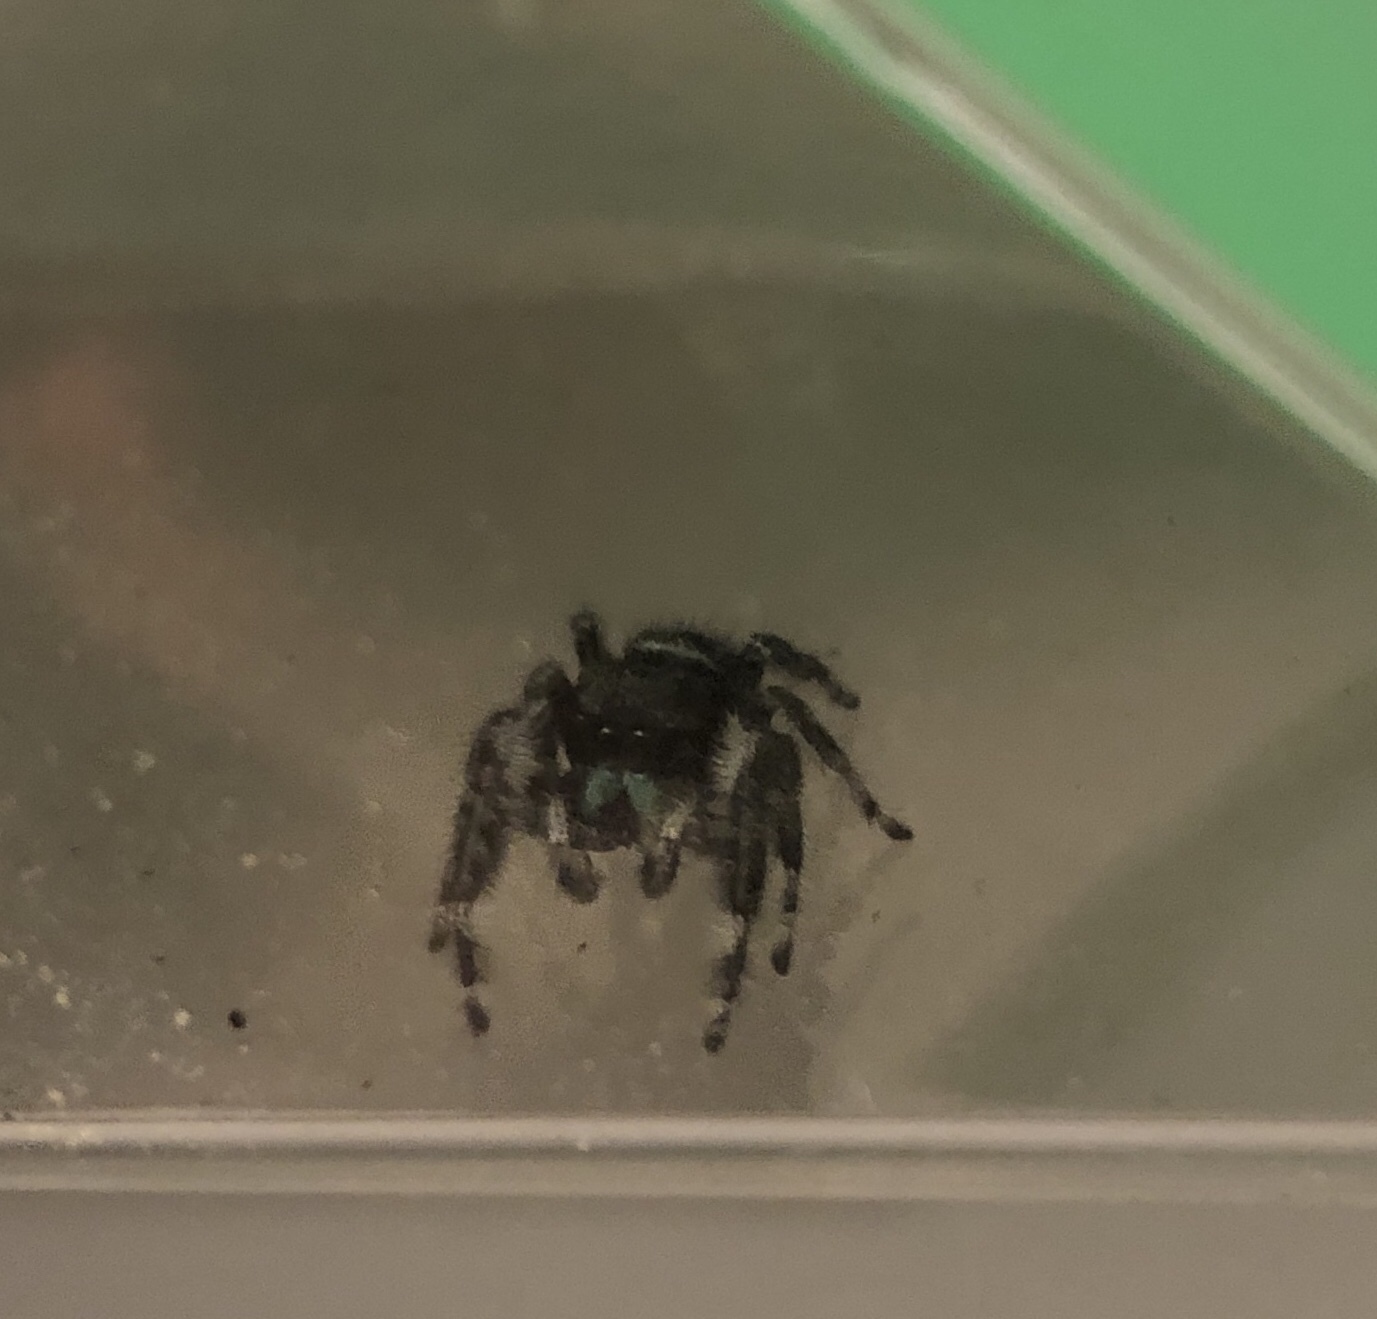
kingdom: Animalia
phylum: Arthropoda
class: Arachnida
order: Araneae
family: Salticidae
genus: Phidippus
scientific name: Phidippus audax
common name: Bold jumper
